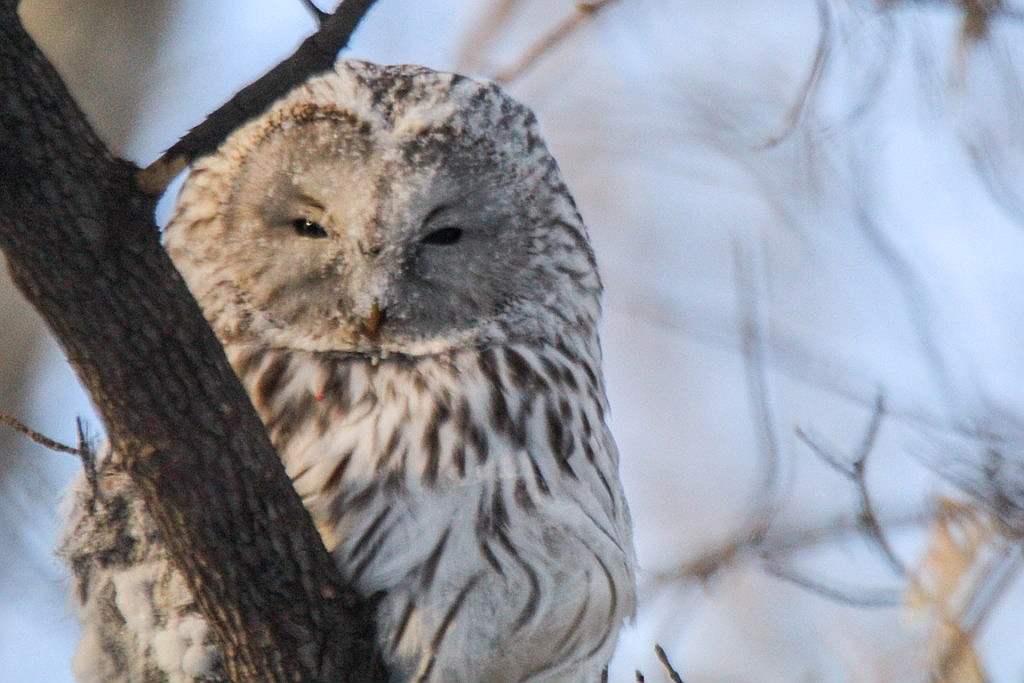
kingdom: Animalia
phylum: Chordata
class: Aves
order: Strigiformes
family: Strigidae
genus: Strix
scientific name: Strix uralensis
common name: Ural owl
